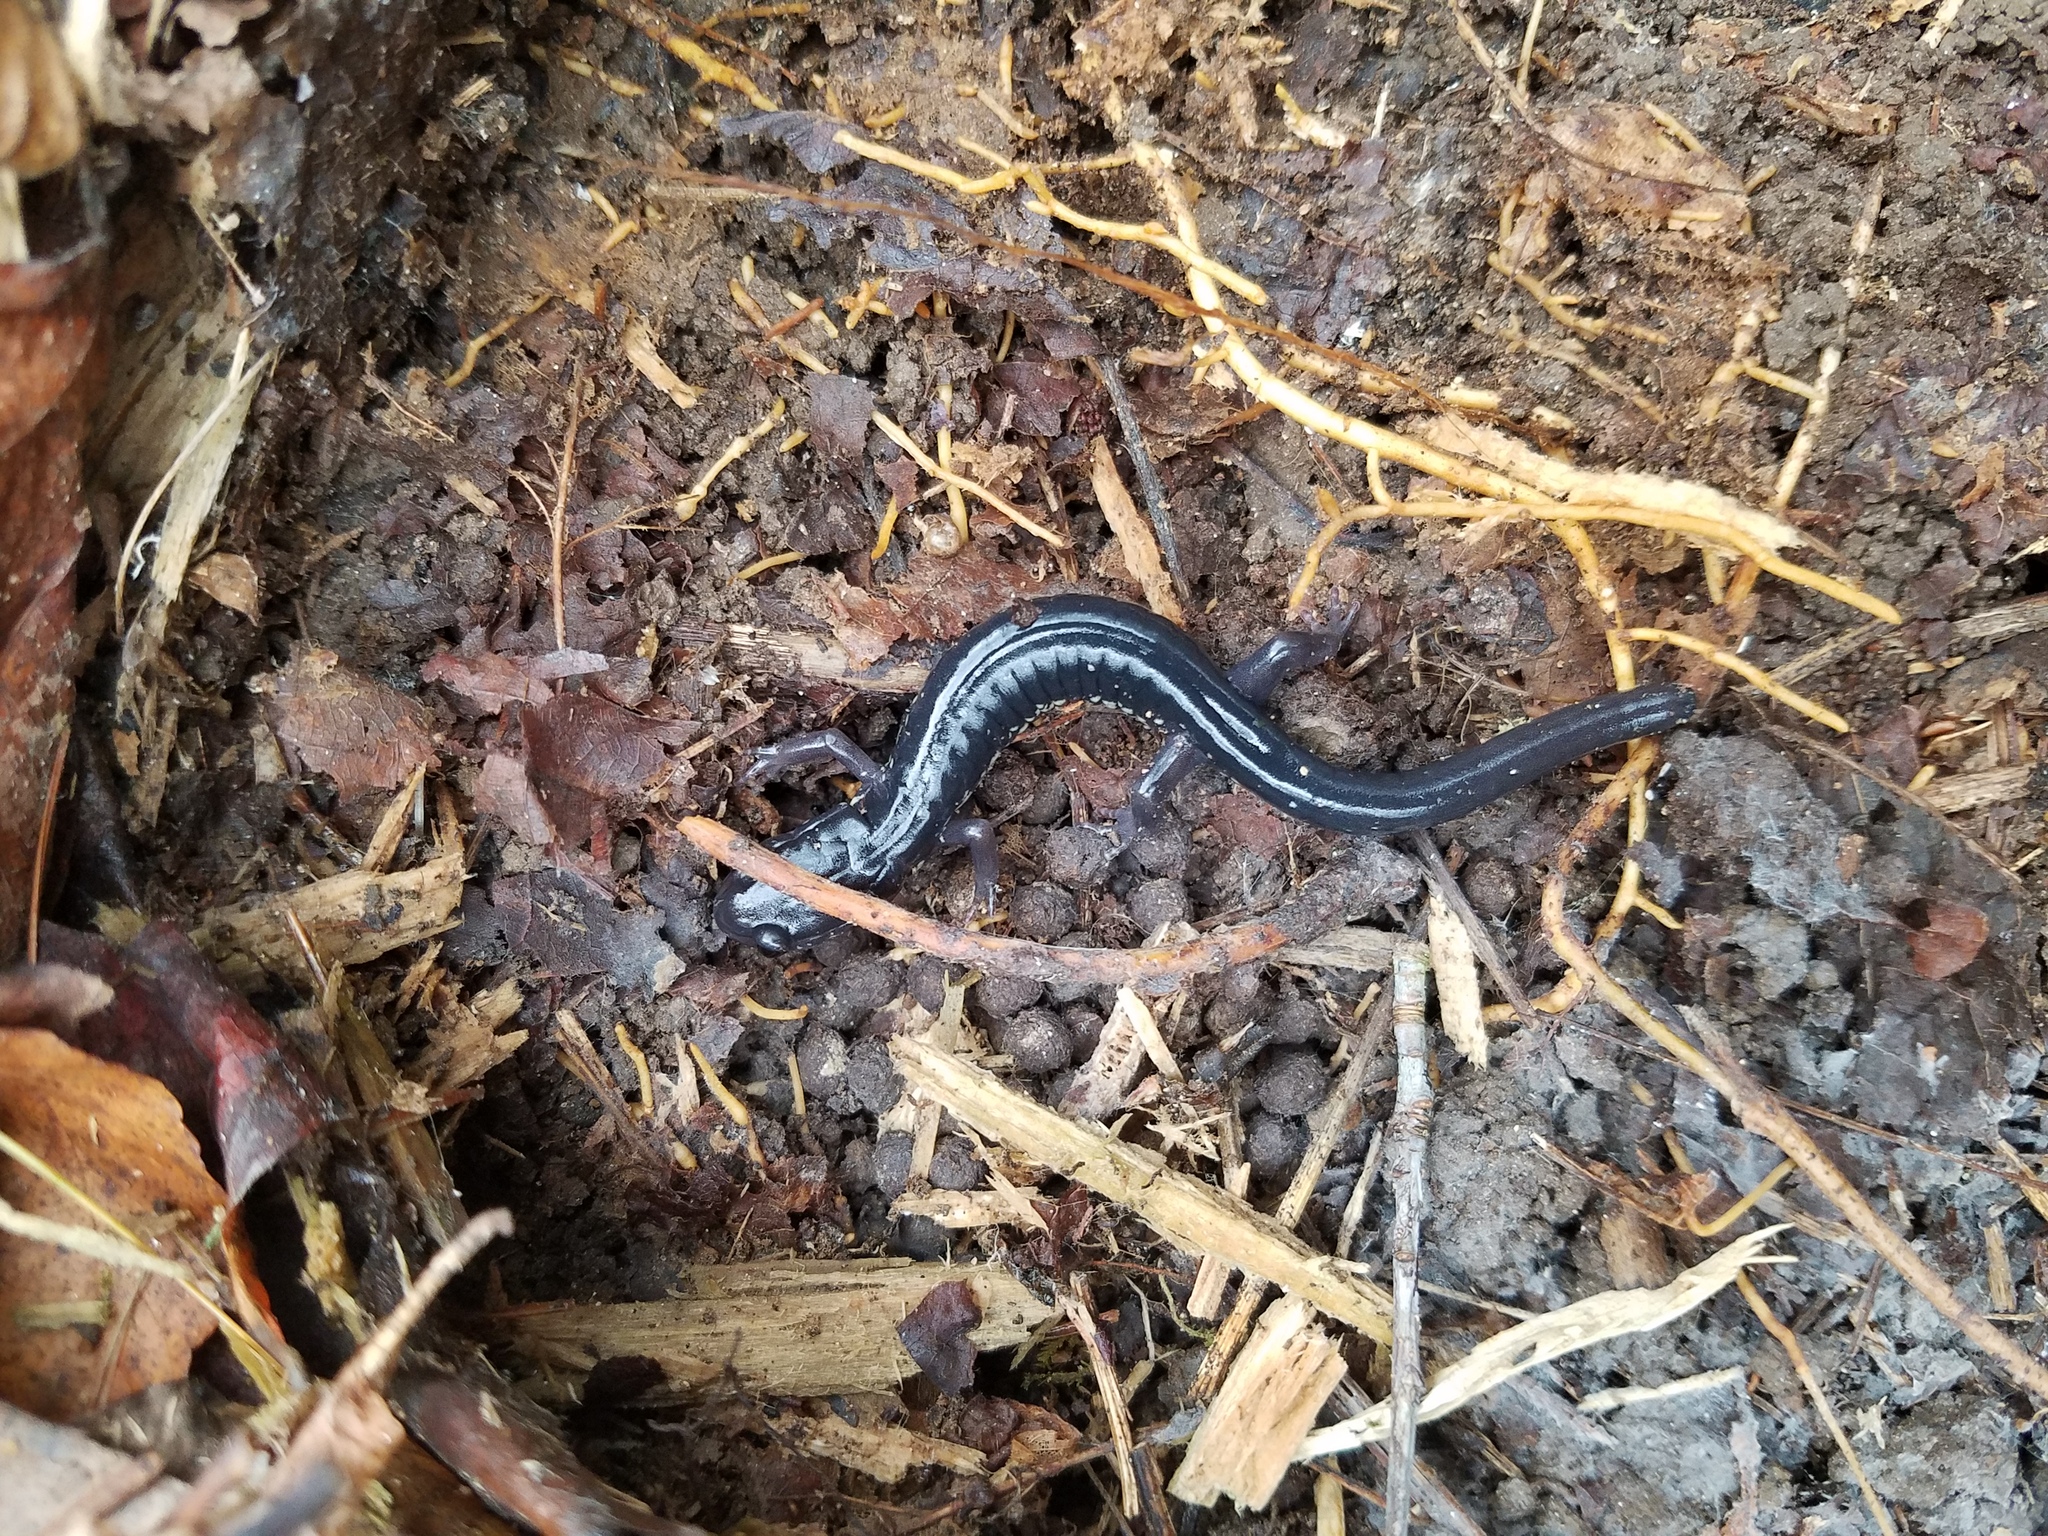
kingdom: Animalia
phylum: Chordata
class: Amphibia
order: Caudata
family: Plethodontidae
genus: Plethodon
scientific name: Plethodon chattahoochee
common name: Chattahoochee slimy salamander
